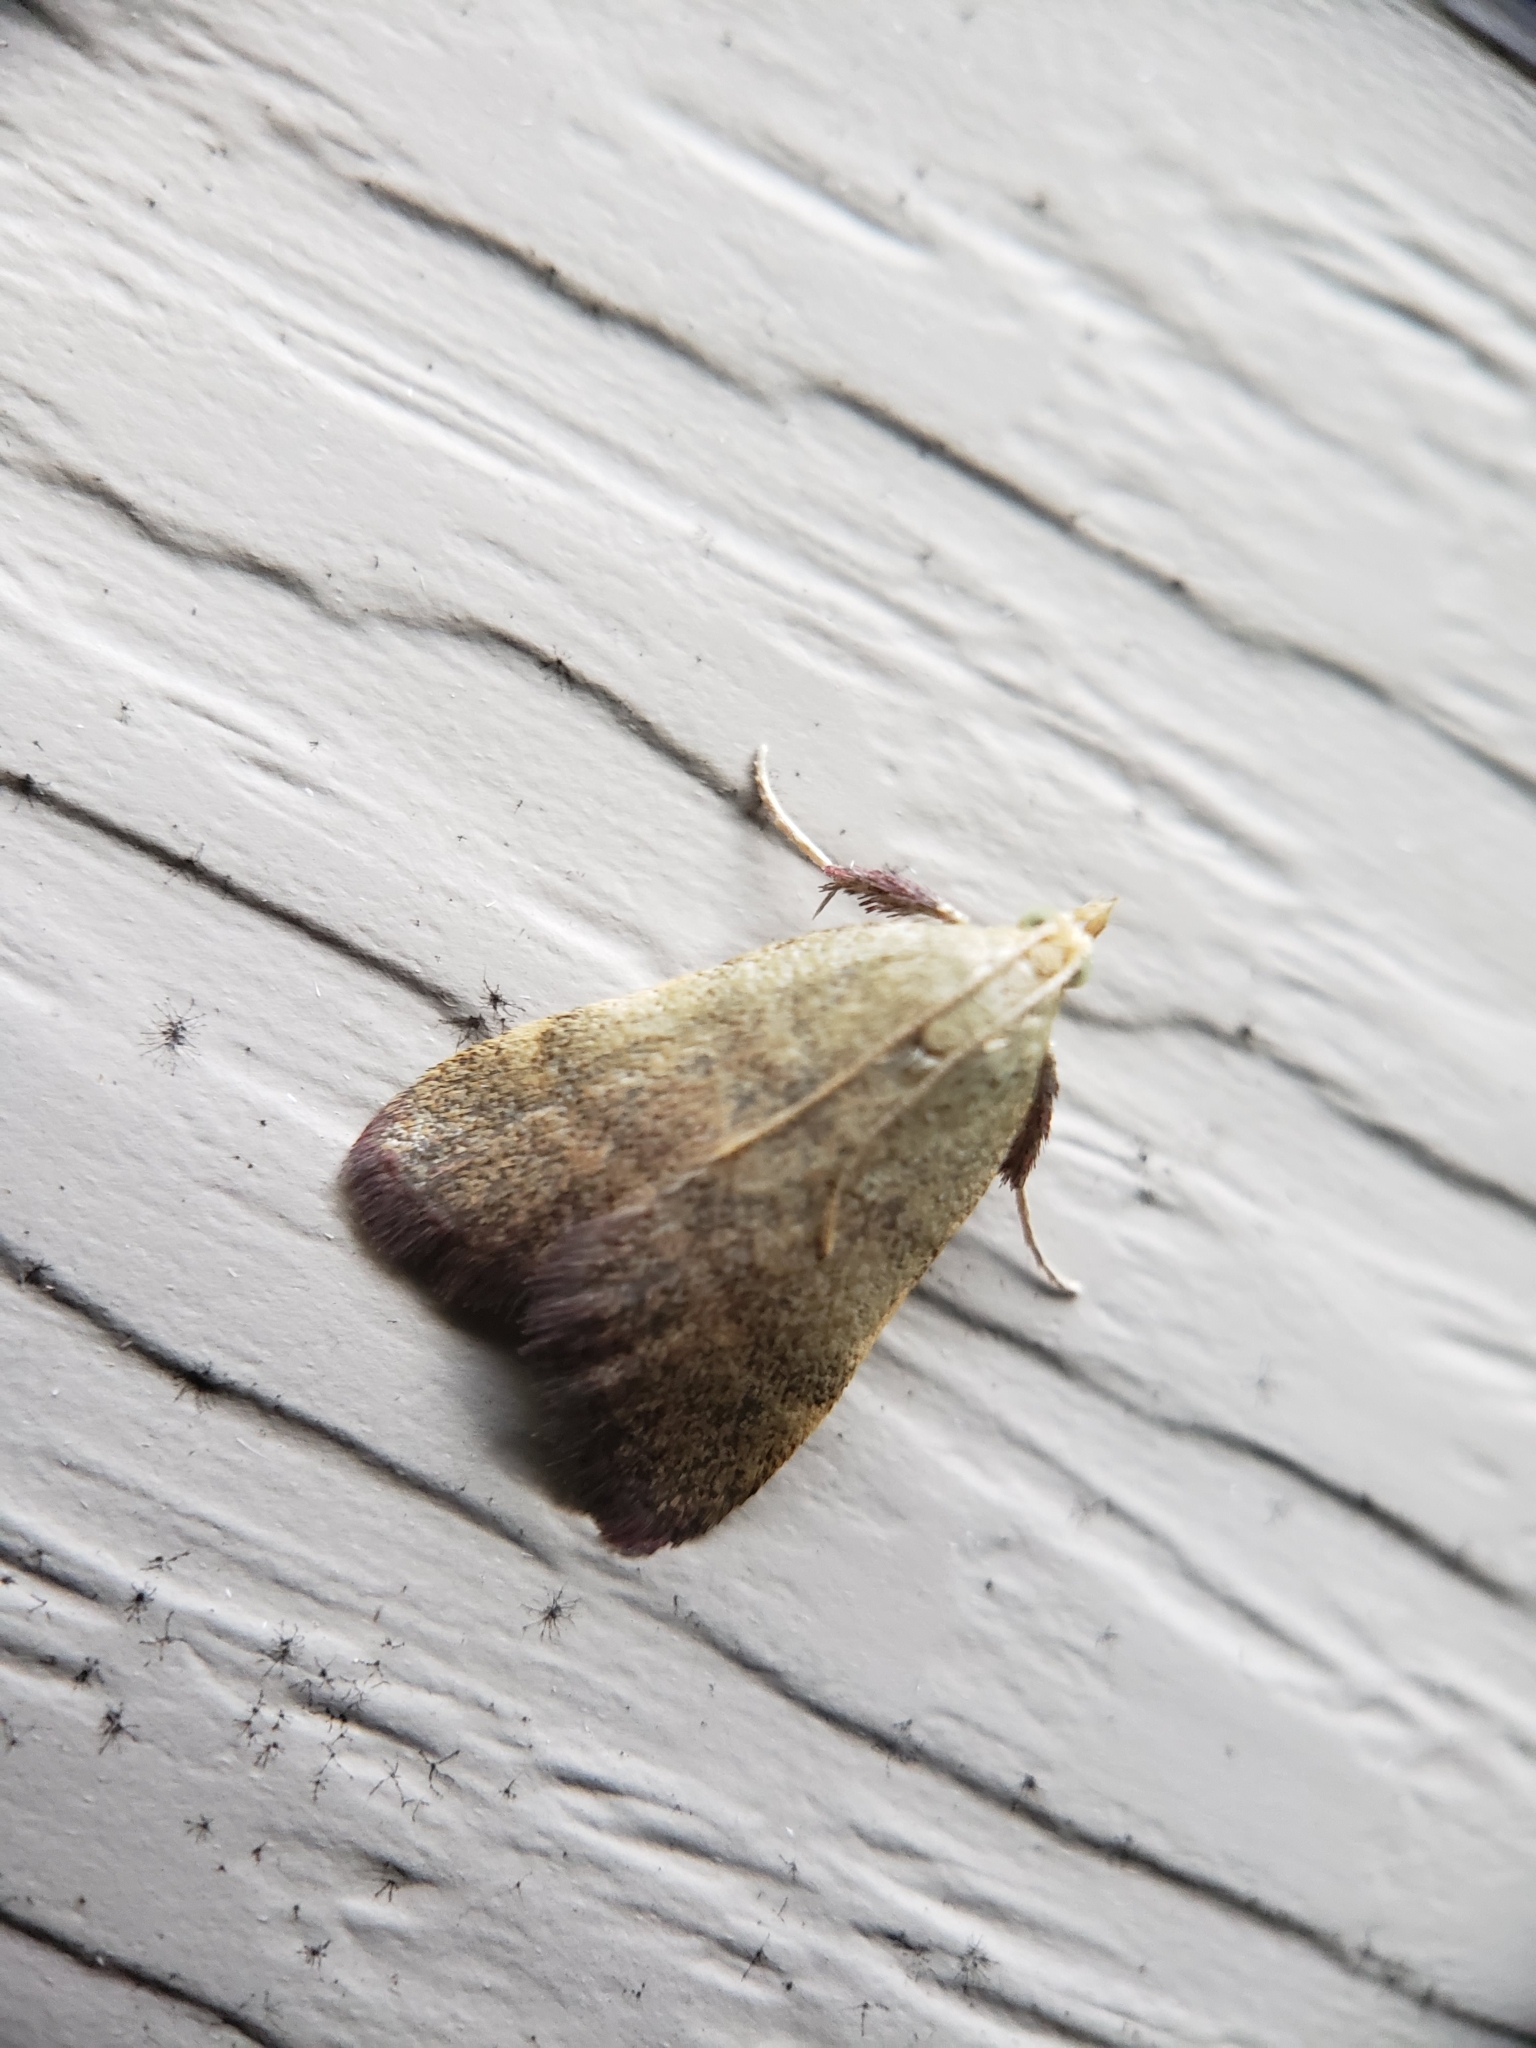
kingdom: Animalia
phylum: Arthropoda
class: Insecta
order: Lepidoptera
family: Pyralidae
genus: Condylolomia
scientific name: Condylolomia participialis
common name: Drab condylolomia moth
